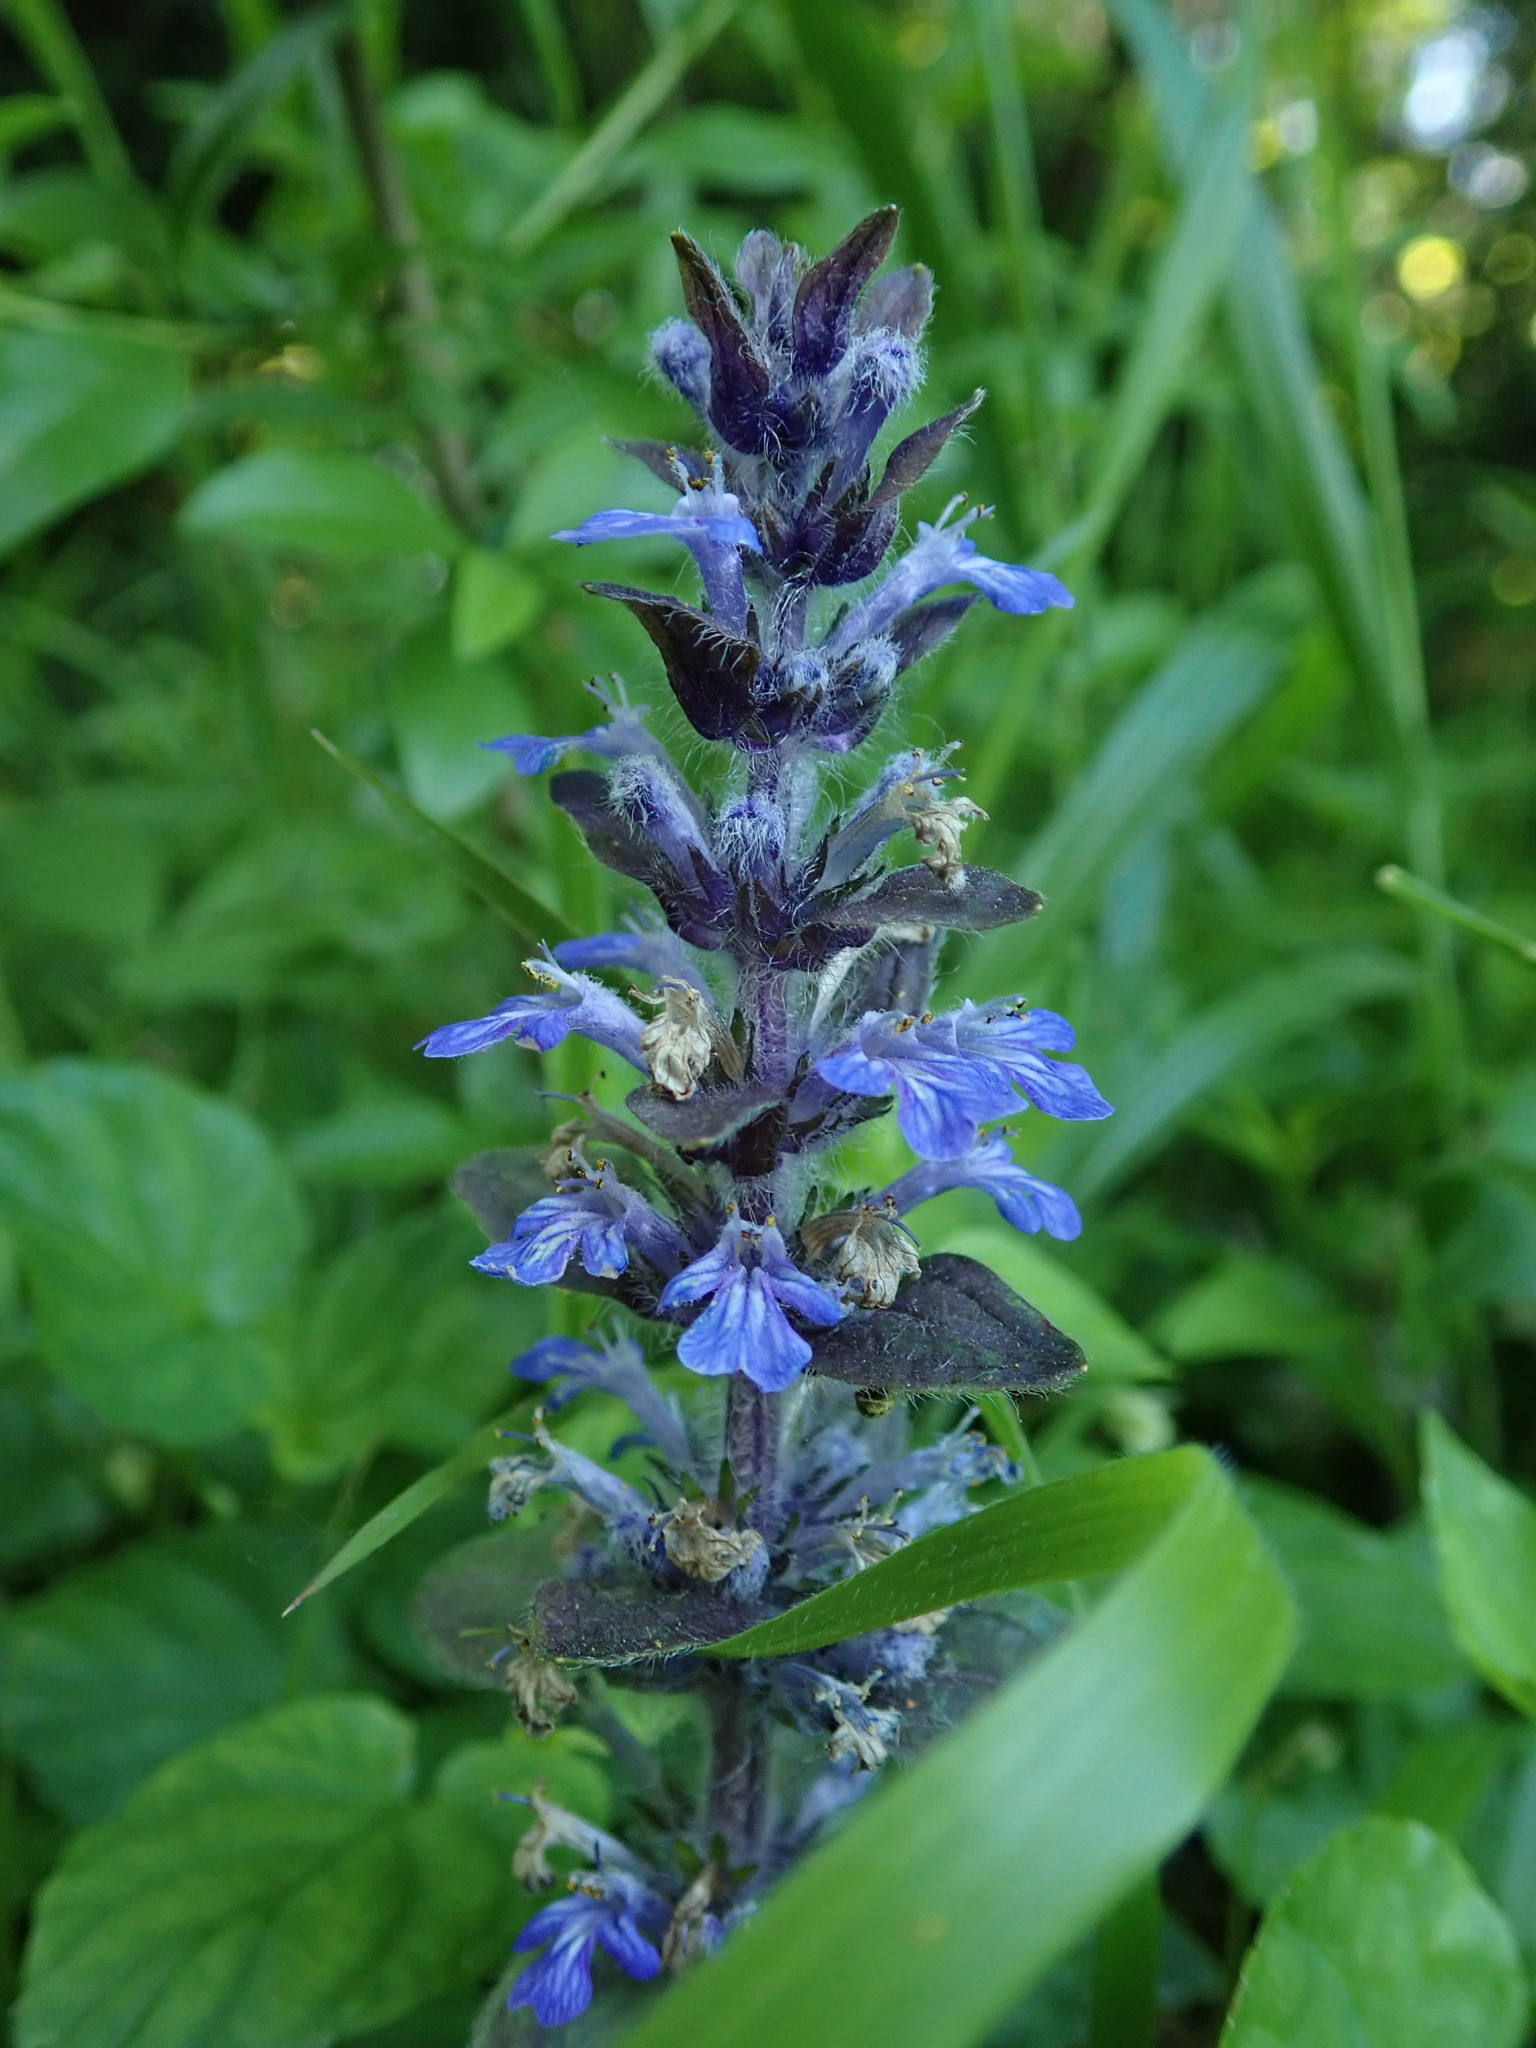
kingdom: Plantae
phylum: Tracheophyta
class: Magnoliopsida
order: Lamiales
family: Lamiaceae
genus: Ajuga
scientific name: Ajuga reptans
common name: Bugle
